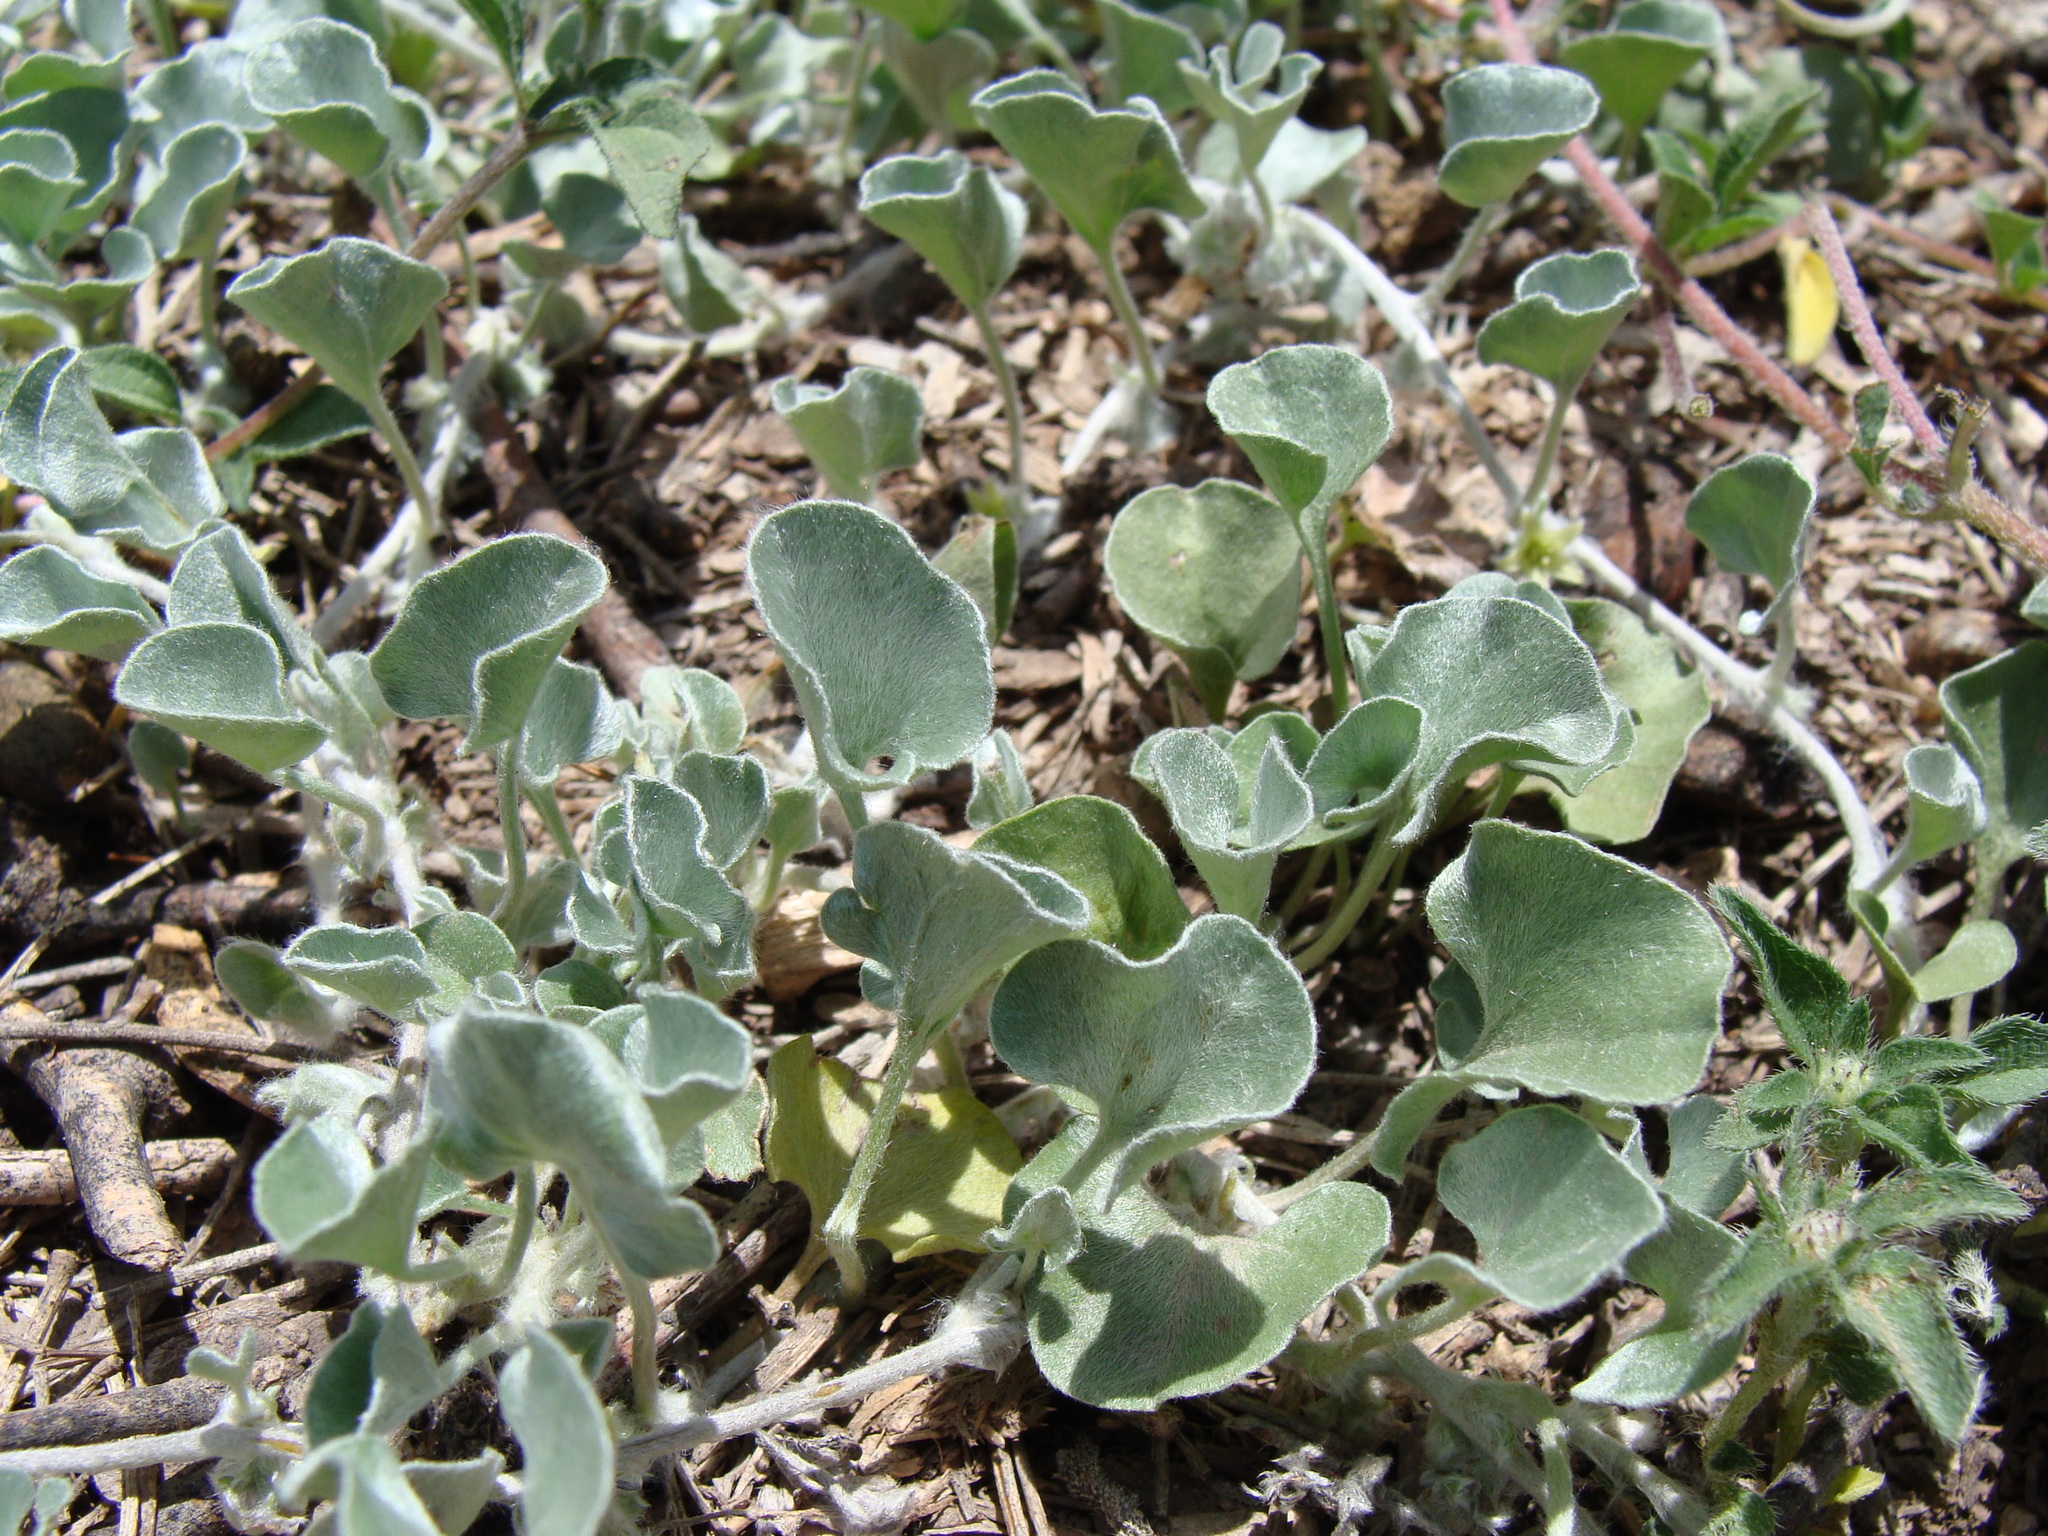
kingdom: Plantae
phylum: Tracheophyta
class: Magnoliopsida
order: Solanales
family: Convolvulaceae
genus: Dichondra
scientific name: Dichondra argentea
